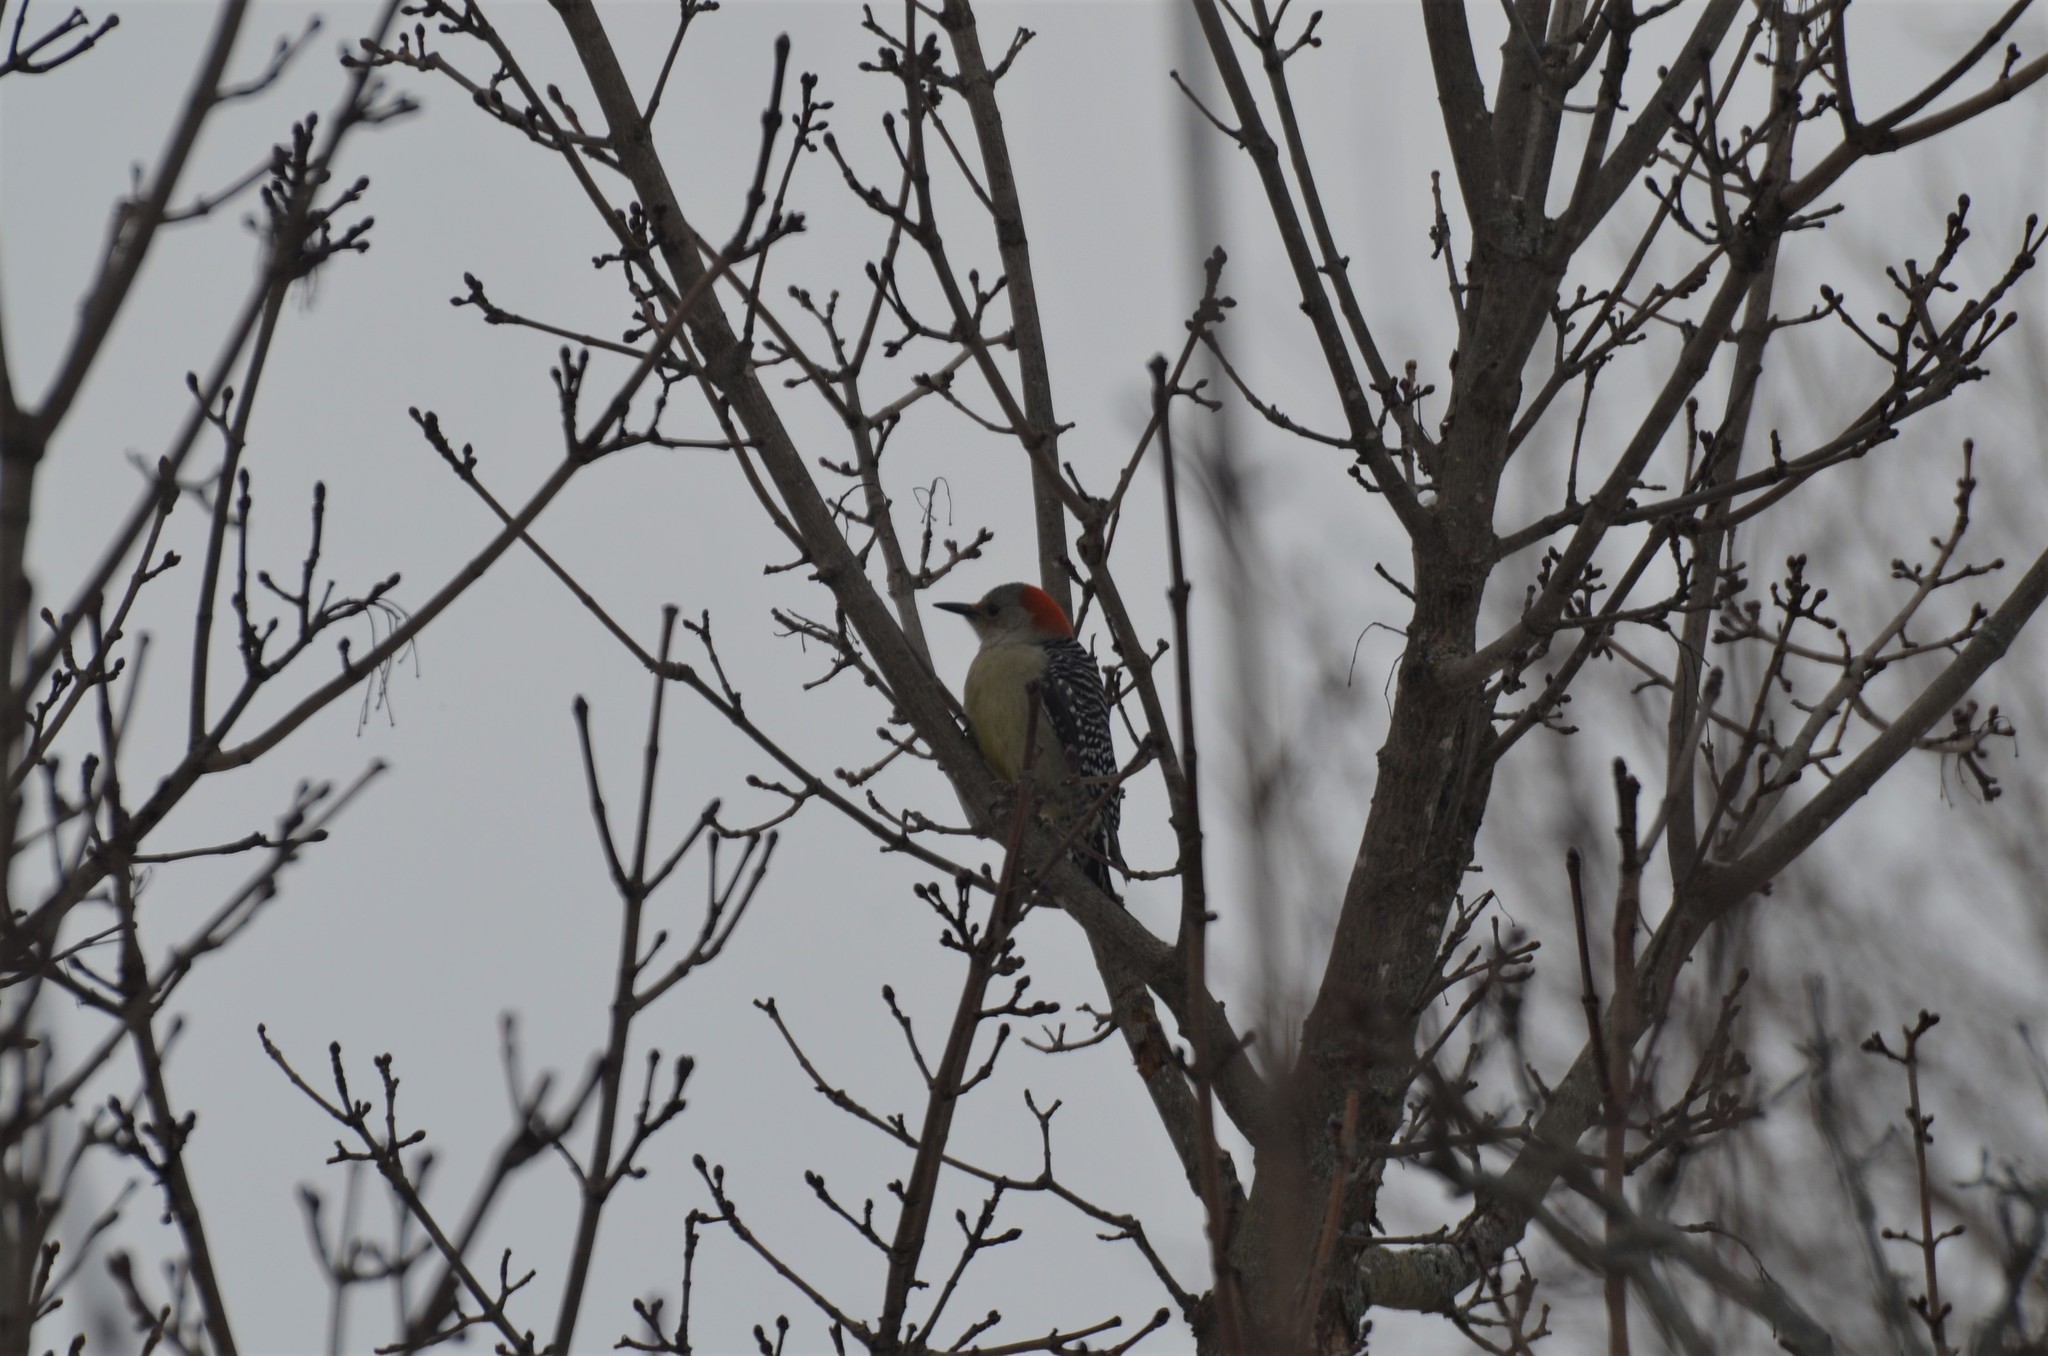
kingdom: Animalia
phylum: Chordata
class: Aves
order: Piciformes
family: Picidae
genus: Melanerpes
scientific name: Melanerpes carolinus
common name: Red-bellied woodpecker
